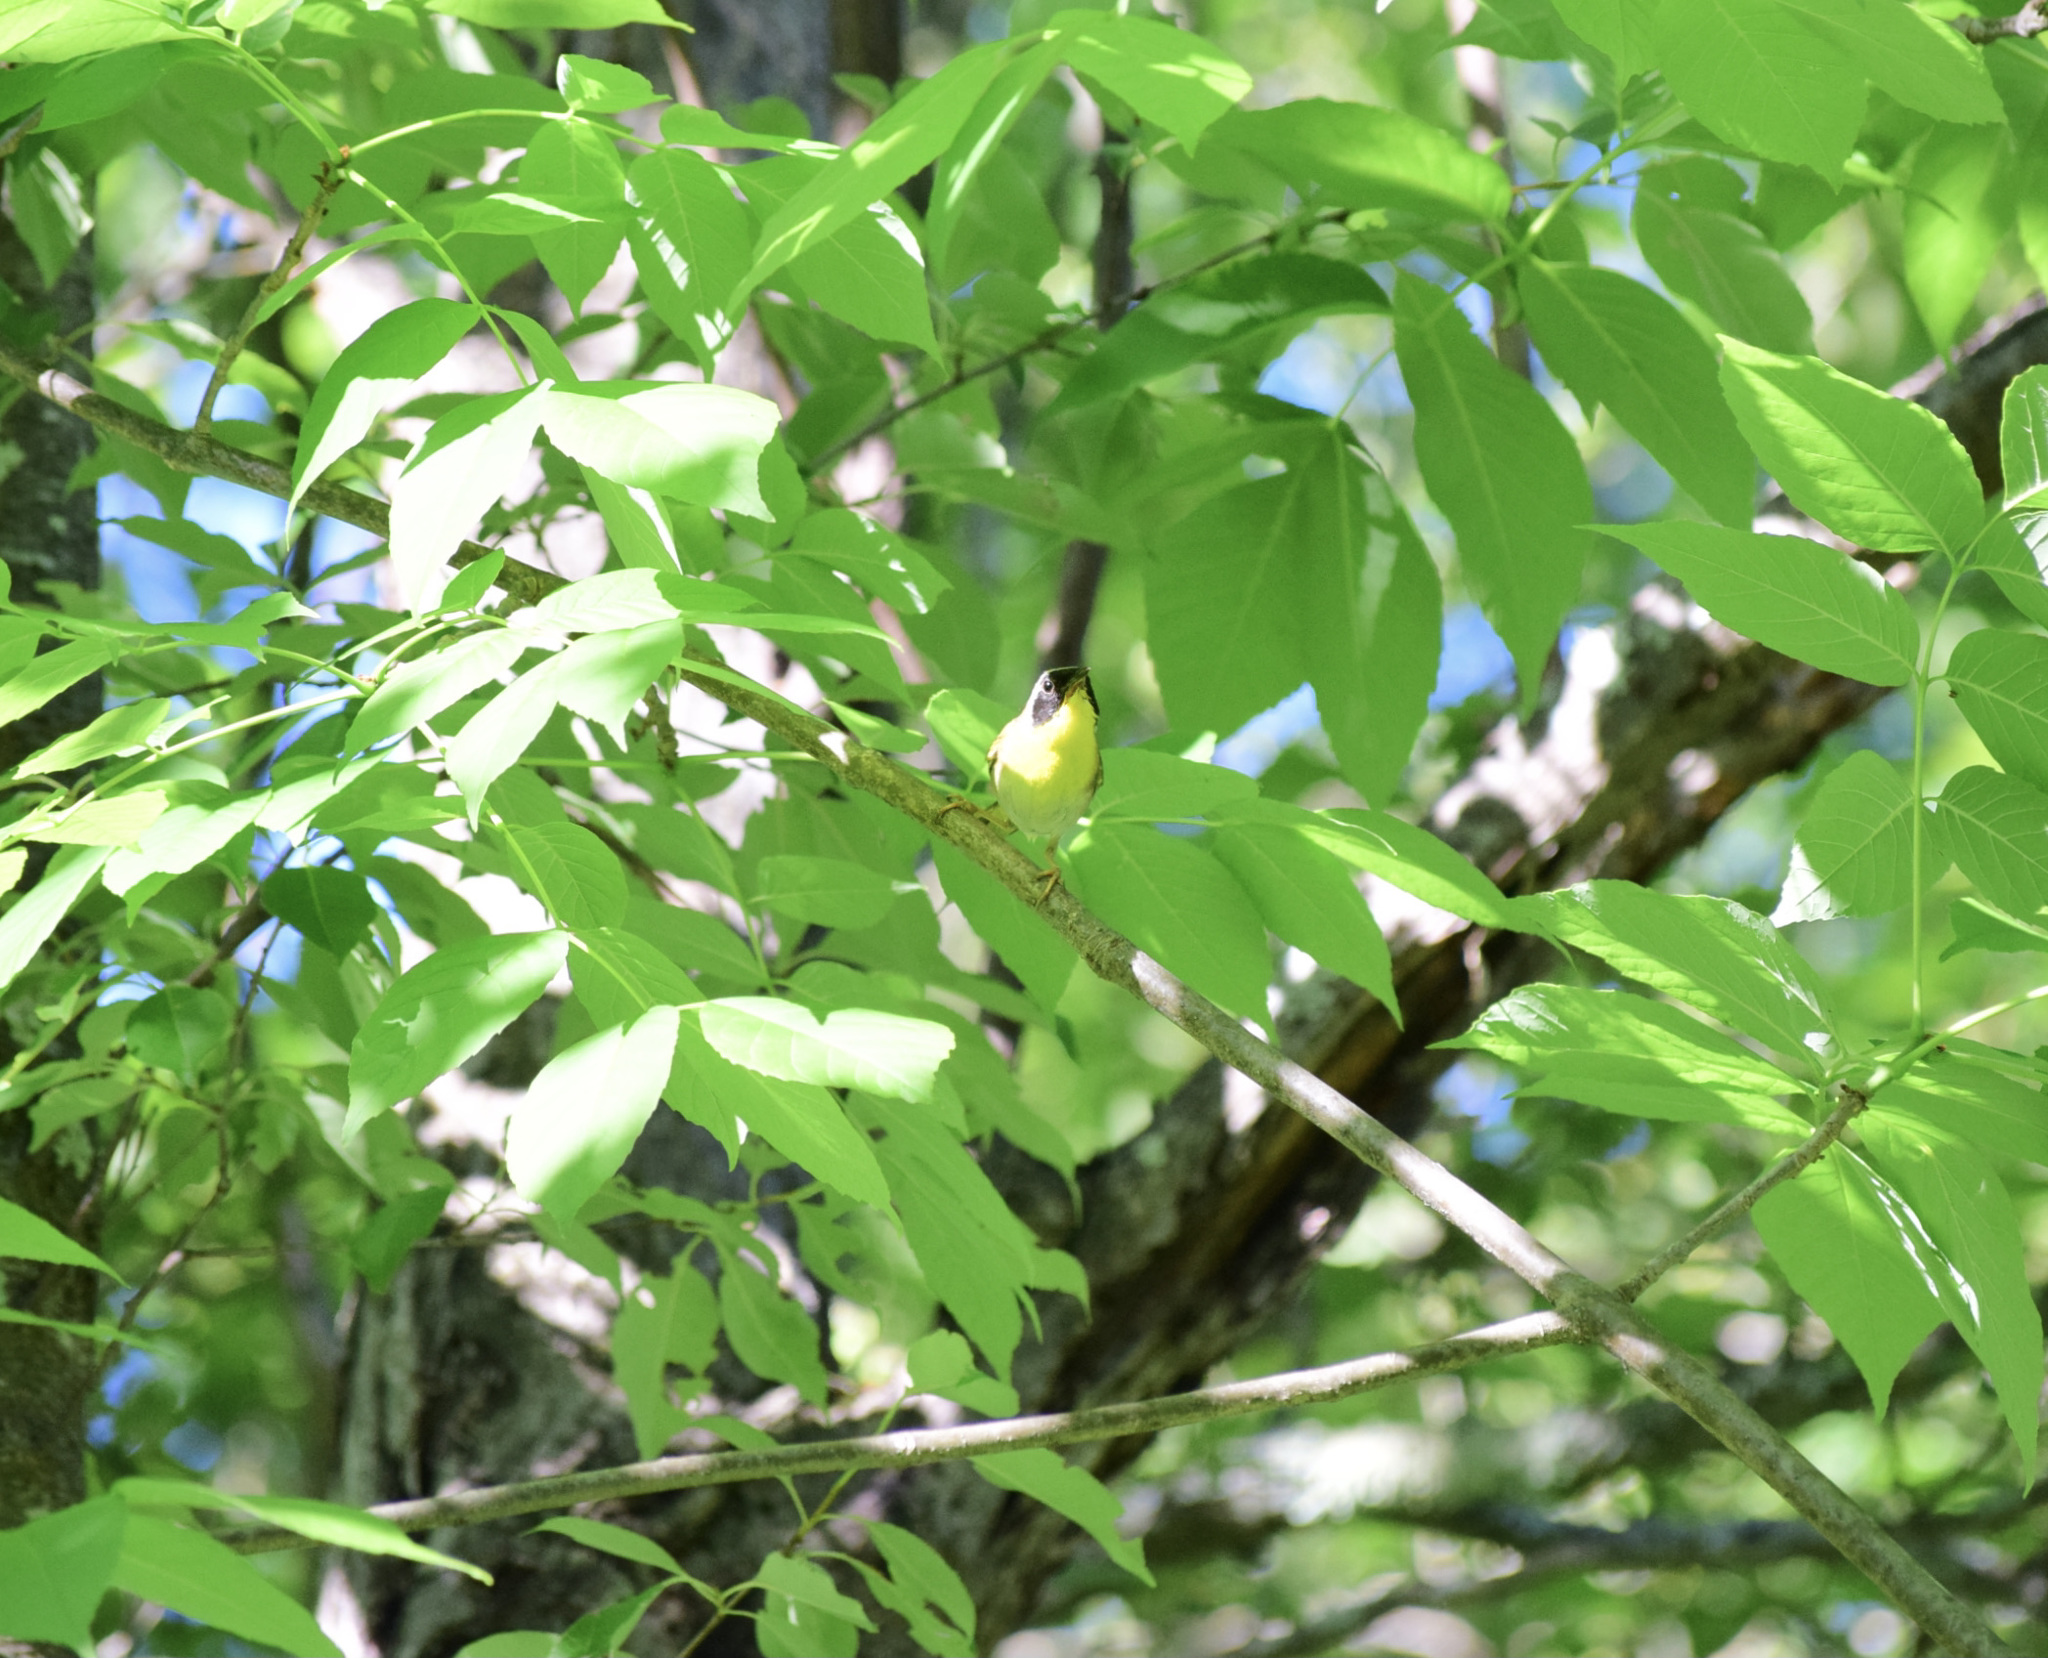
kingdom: Animalia
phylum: Chordata
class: Aves
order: Passeriformes
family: Parulidae
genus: Geothlypis
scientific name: Geothlypis trichas
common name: Common yellowthroat
